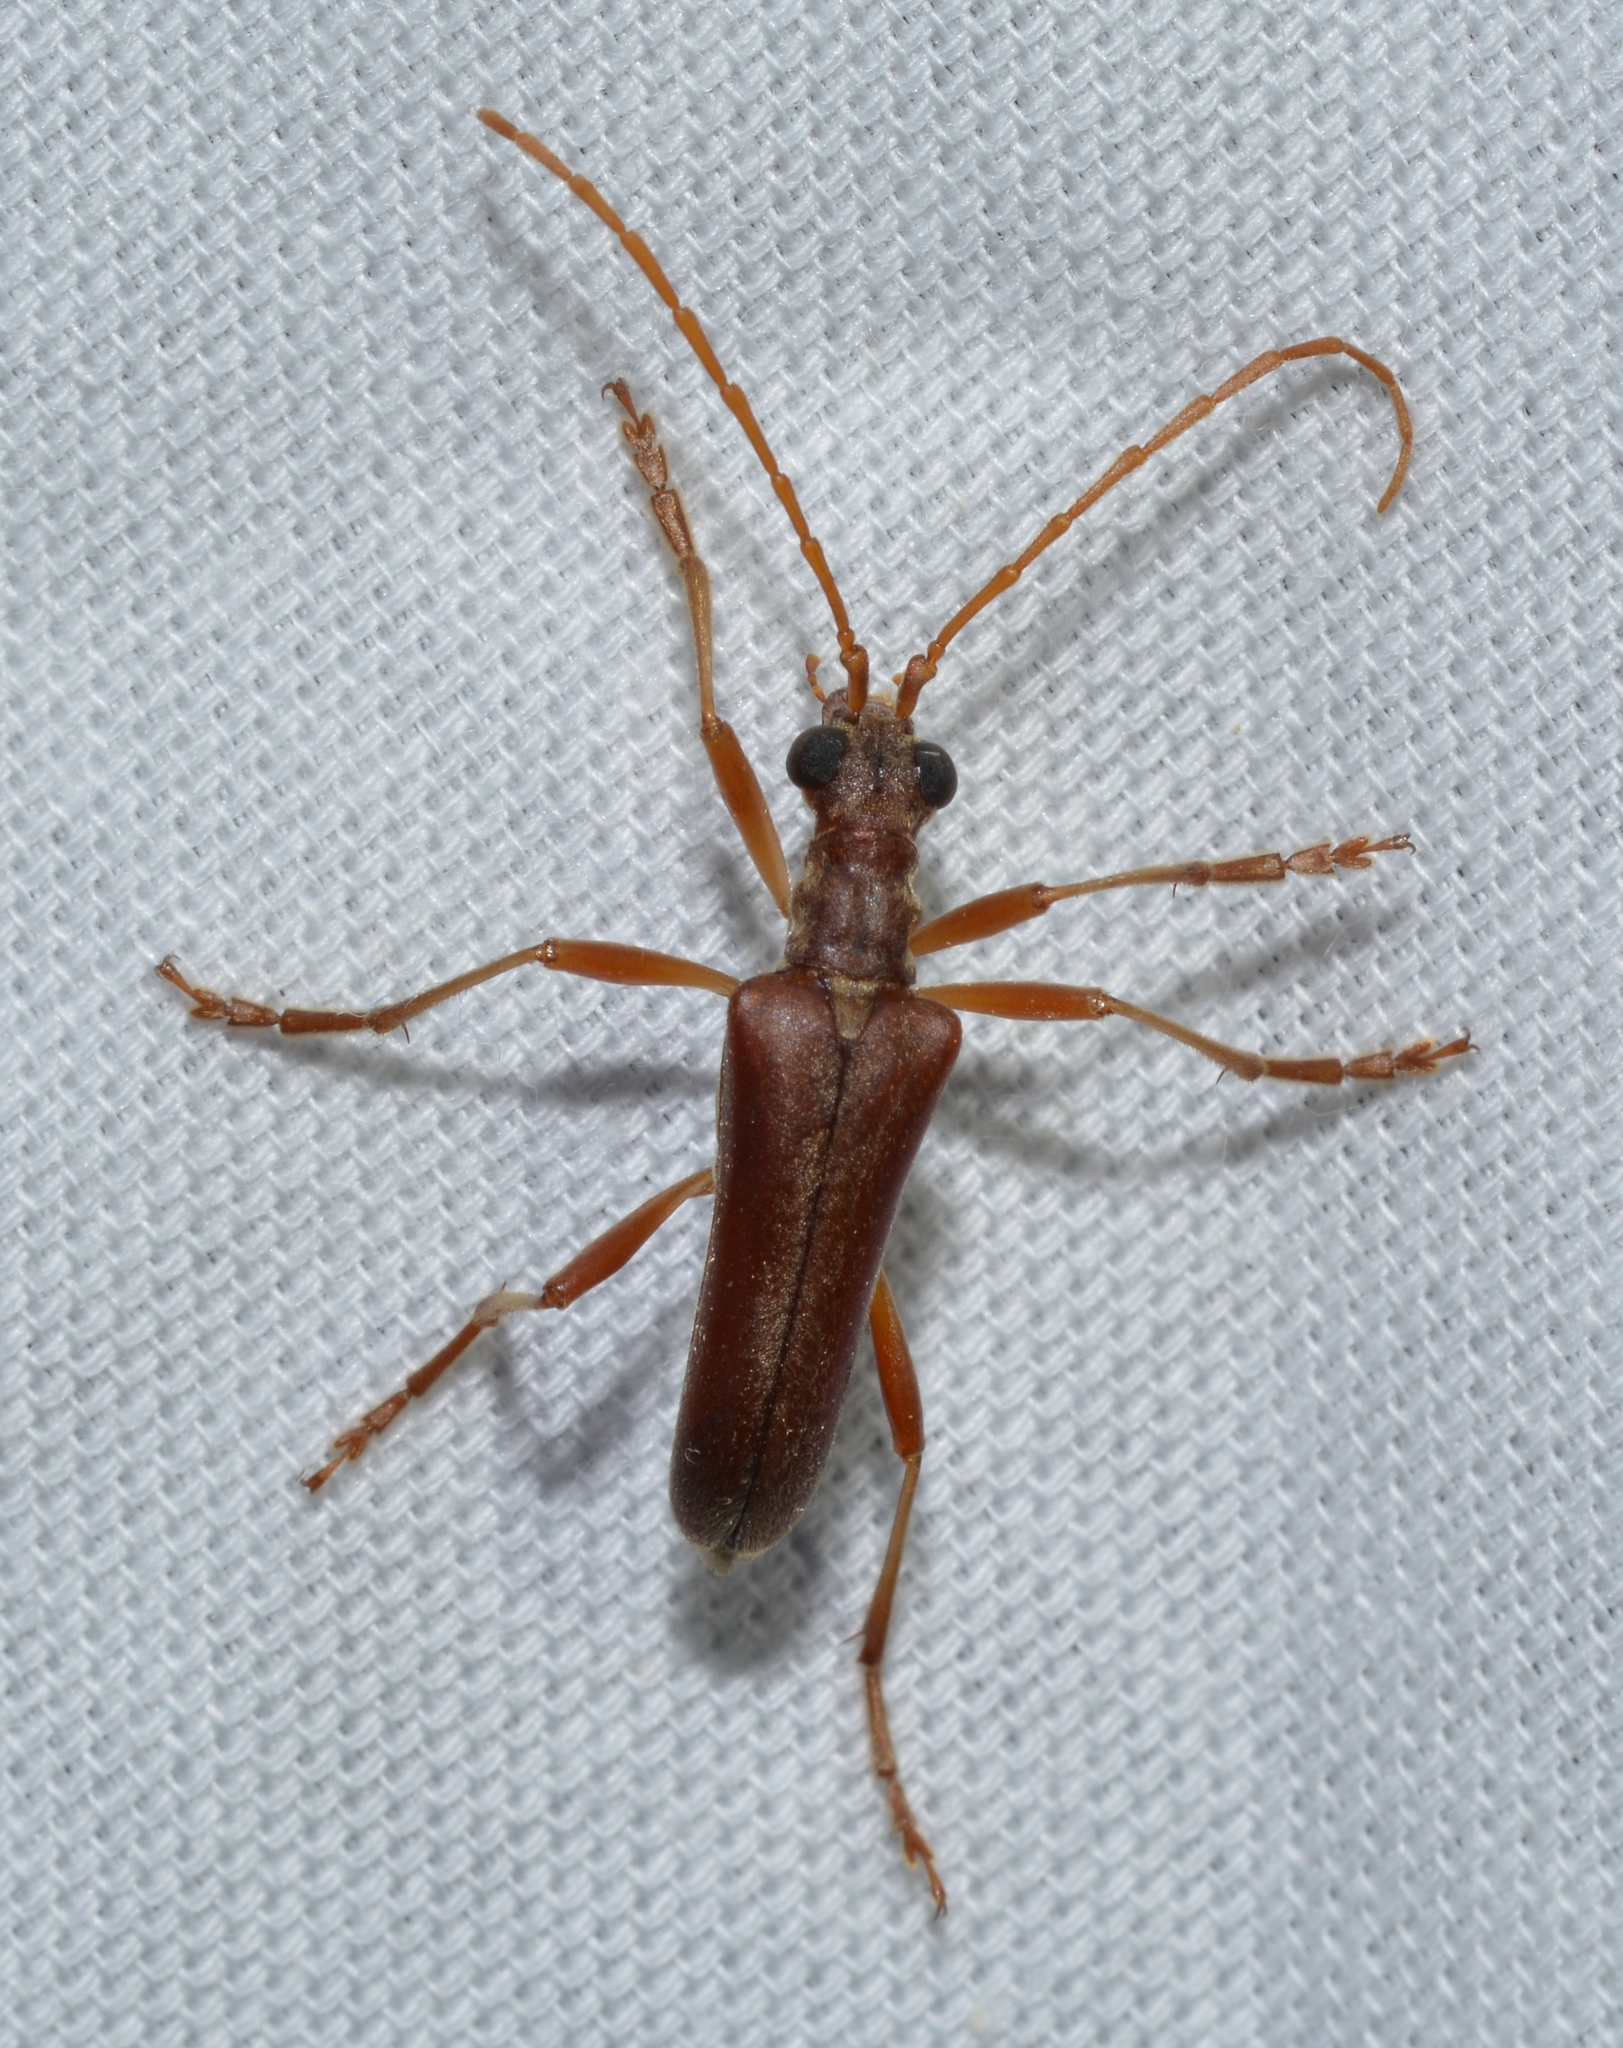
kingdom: Animalia
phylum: Arthropoda
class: Insecta
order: Coleoptera
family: Cerambycidae
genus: Stenocorus
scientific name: Stenocorus cinnamopterus
